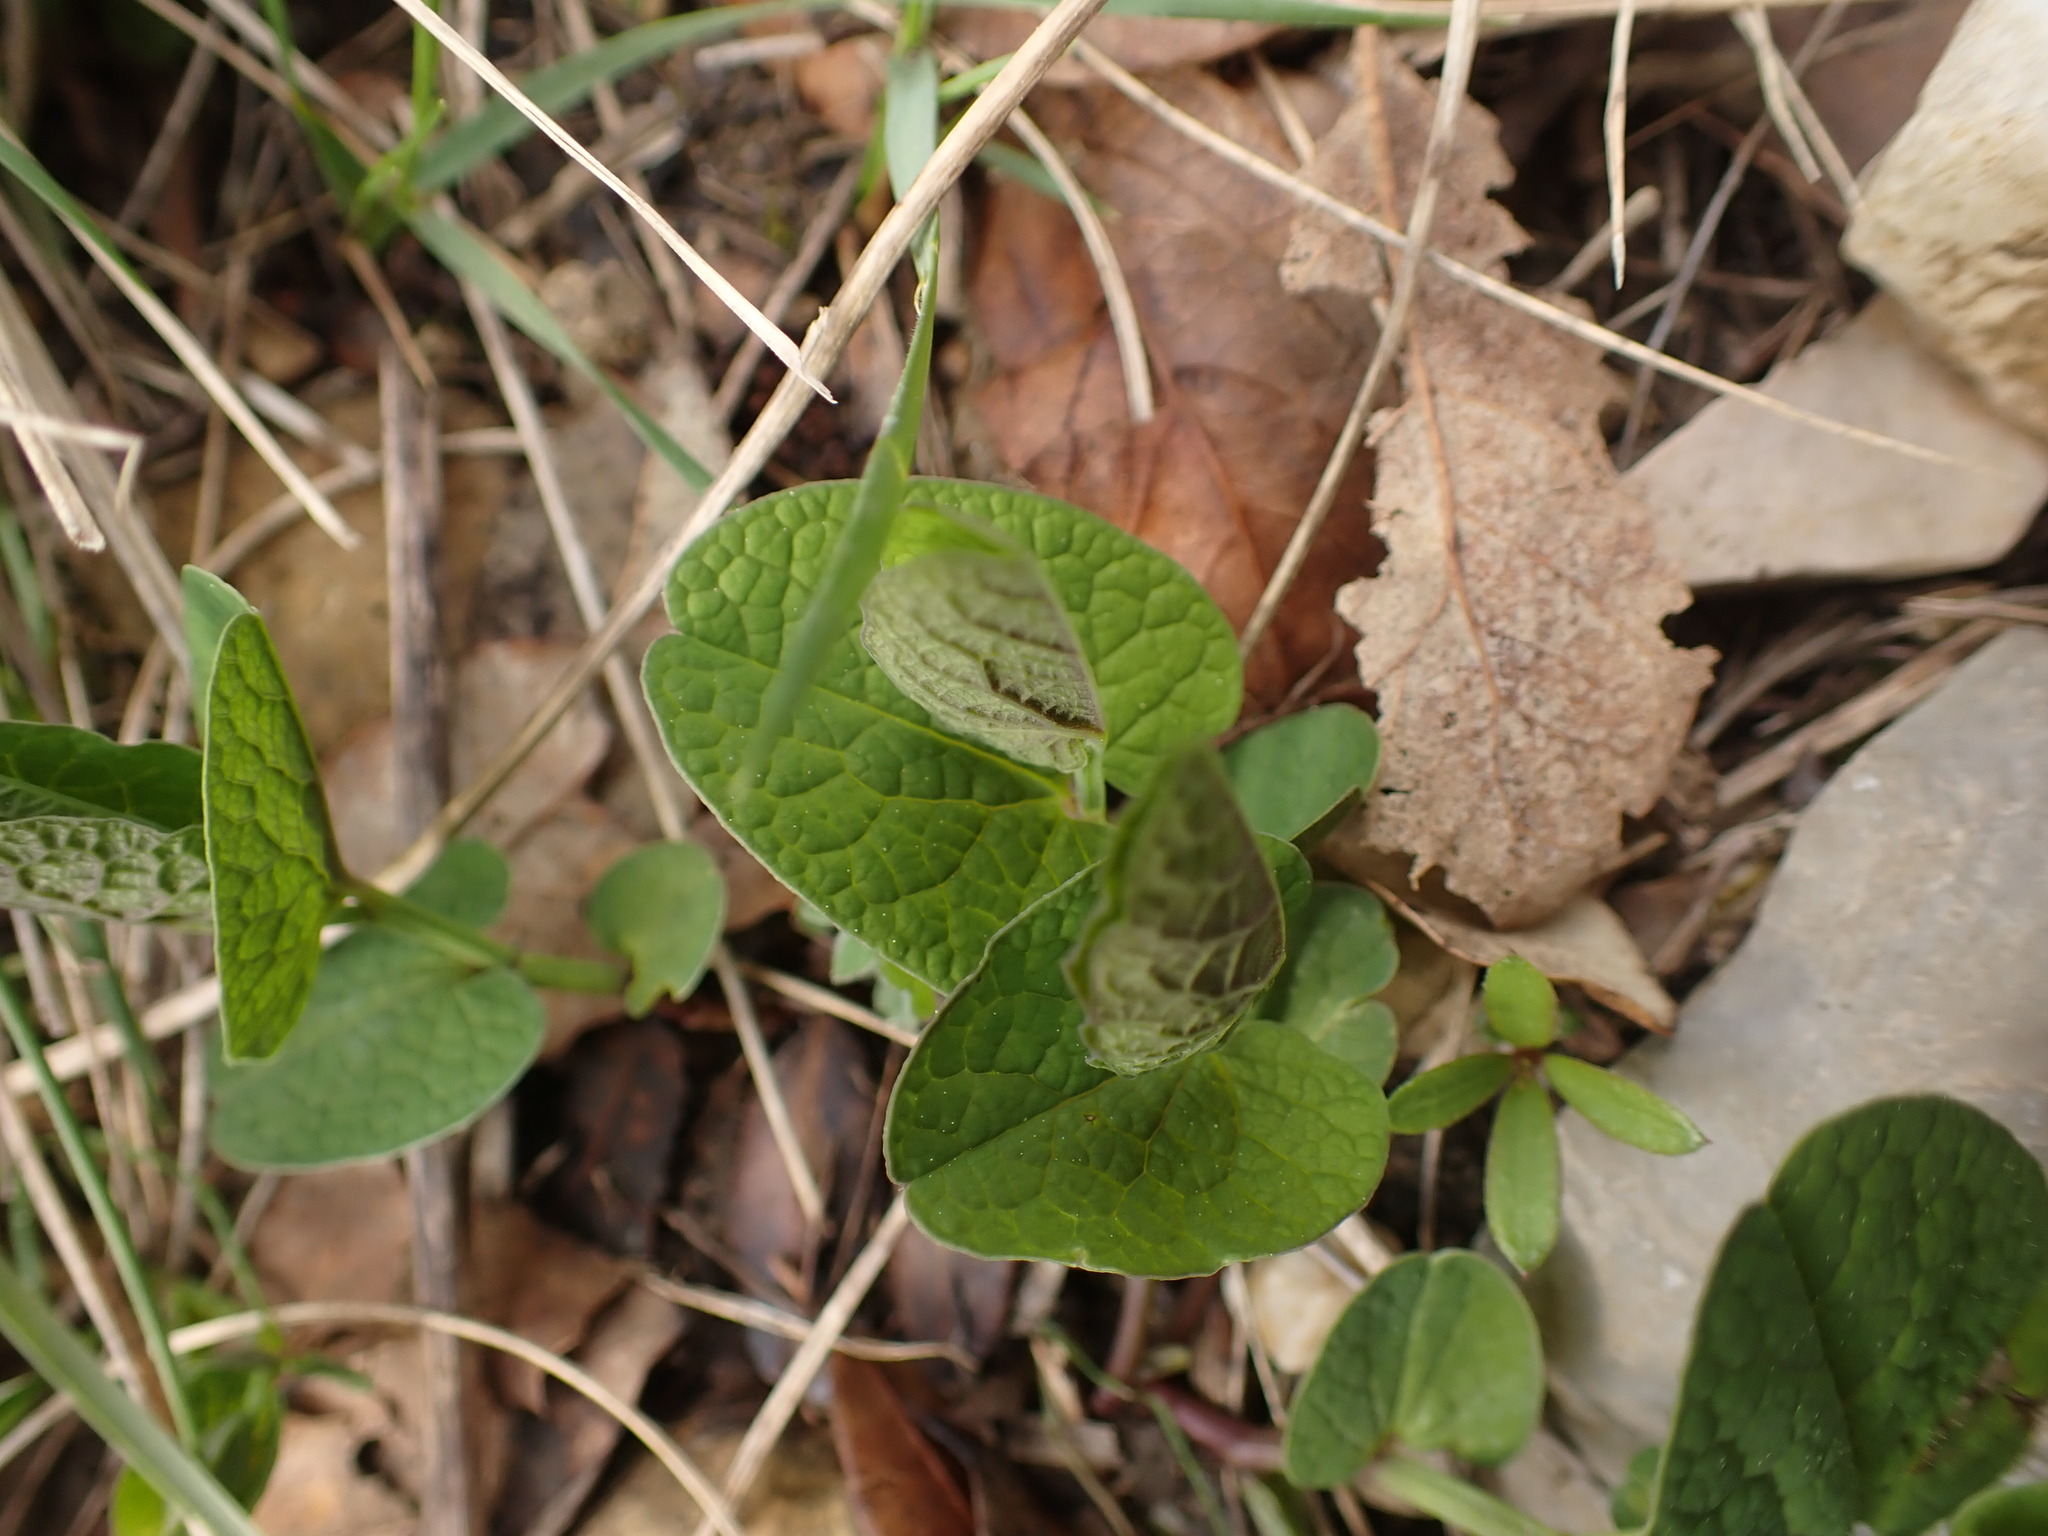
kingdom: Plantae
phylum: Tracheophyta
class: Magnoliopsida
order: Piperales
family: Aristolochiaceae
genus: Aristolochia
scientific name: Aristolochia rotunda
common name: Smearwort
